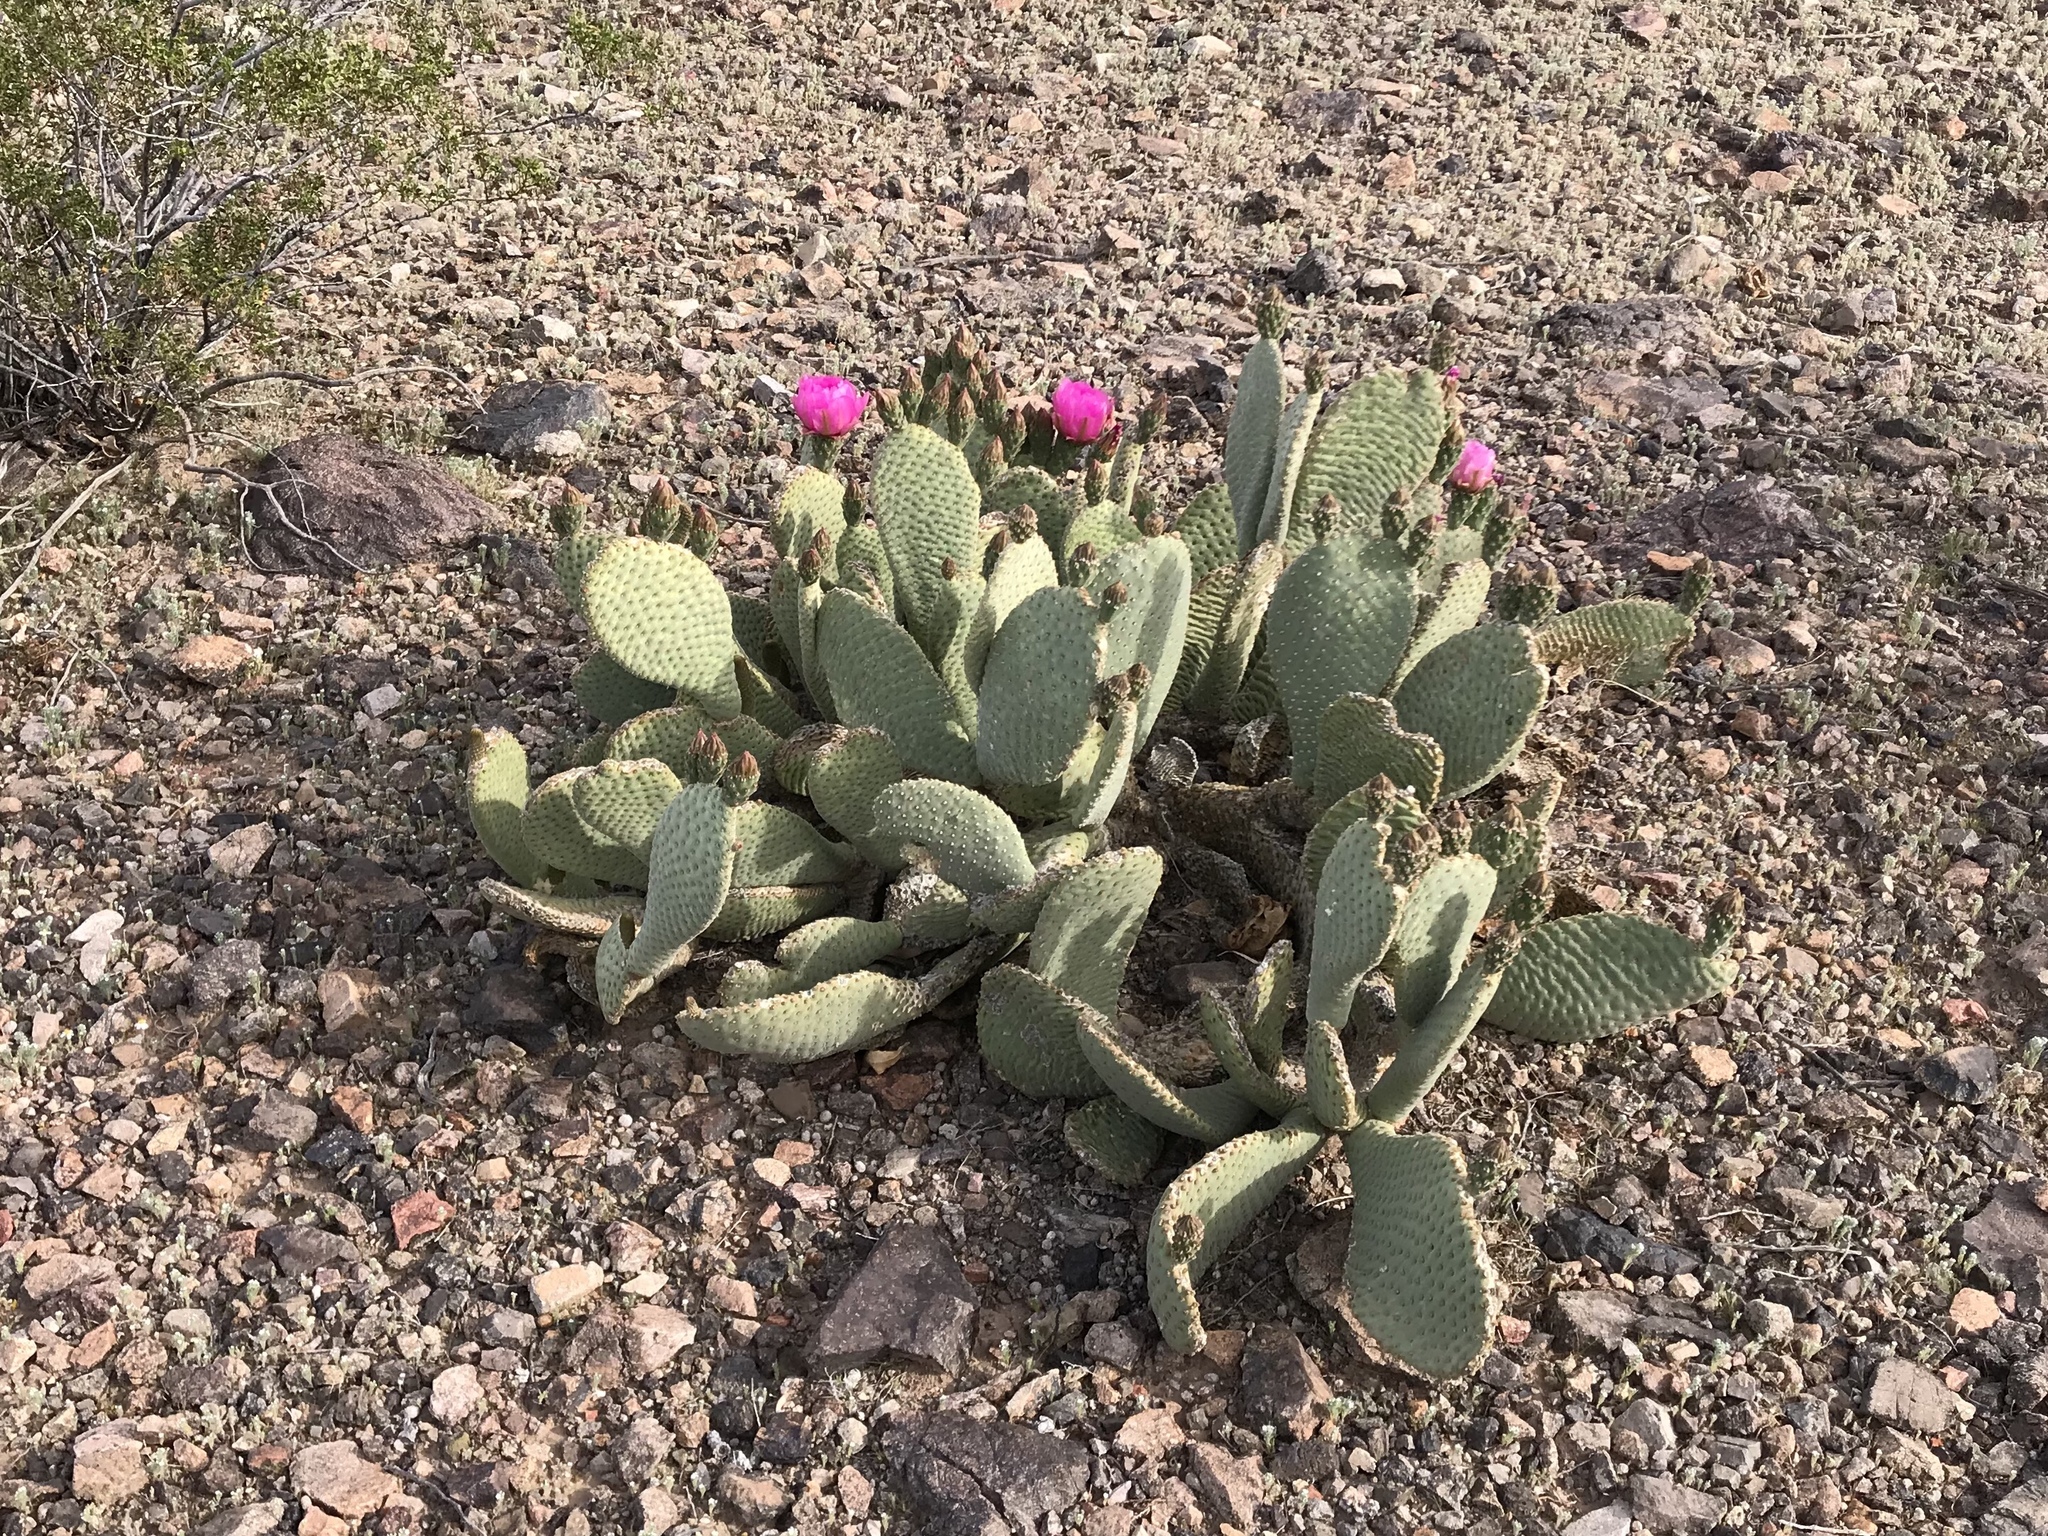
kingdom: Plantae
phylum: Tracheophyta
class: Magnoliopsida
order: Caryophyllales
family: Cactaceae
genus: Opuntia
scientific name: Opuntia basilaris
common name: Beavertail prickly-pear
